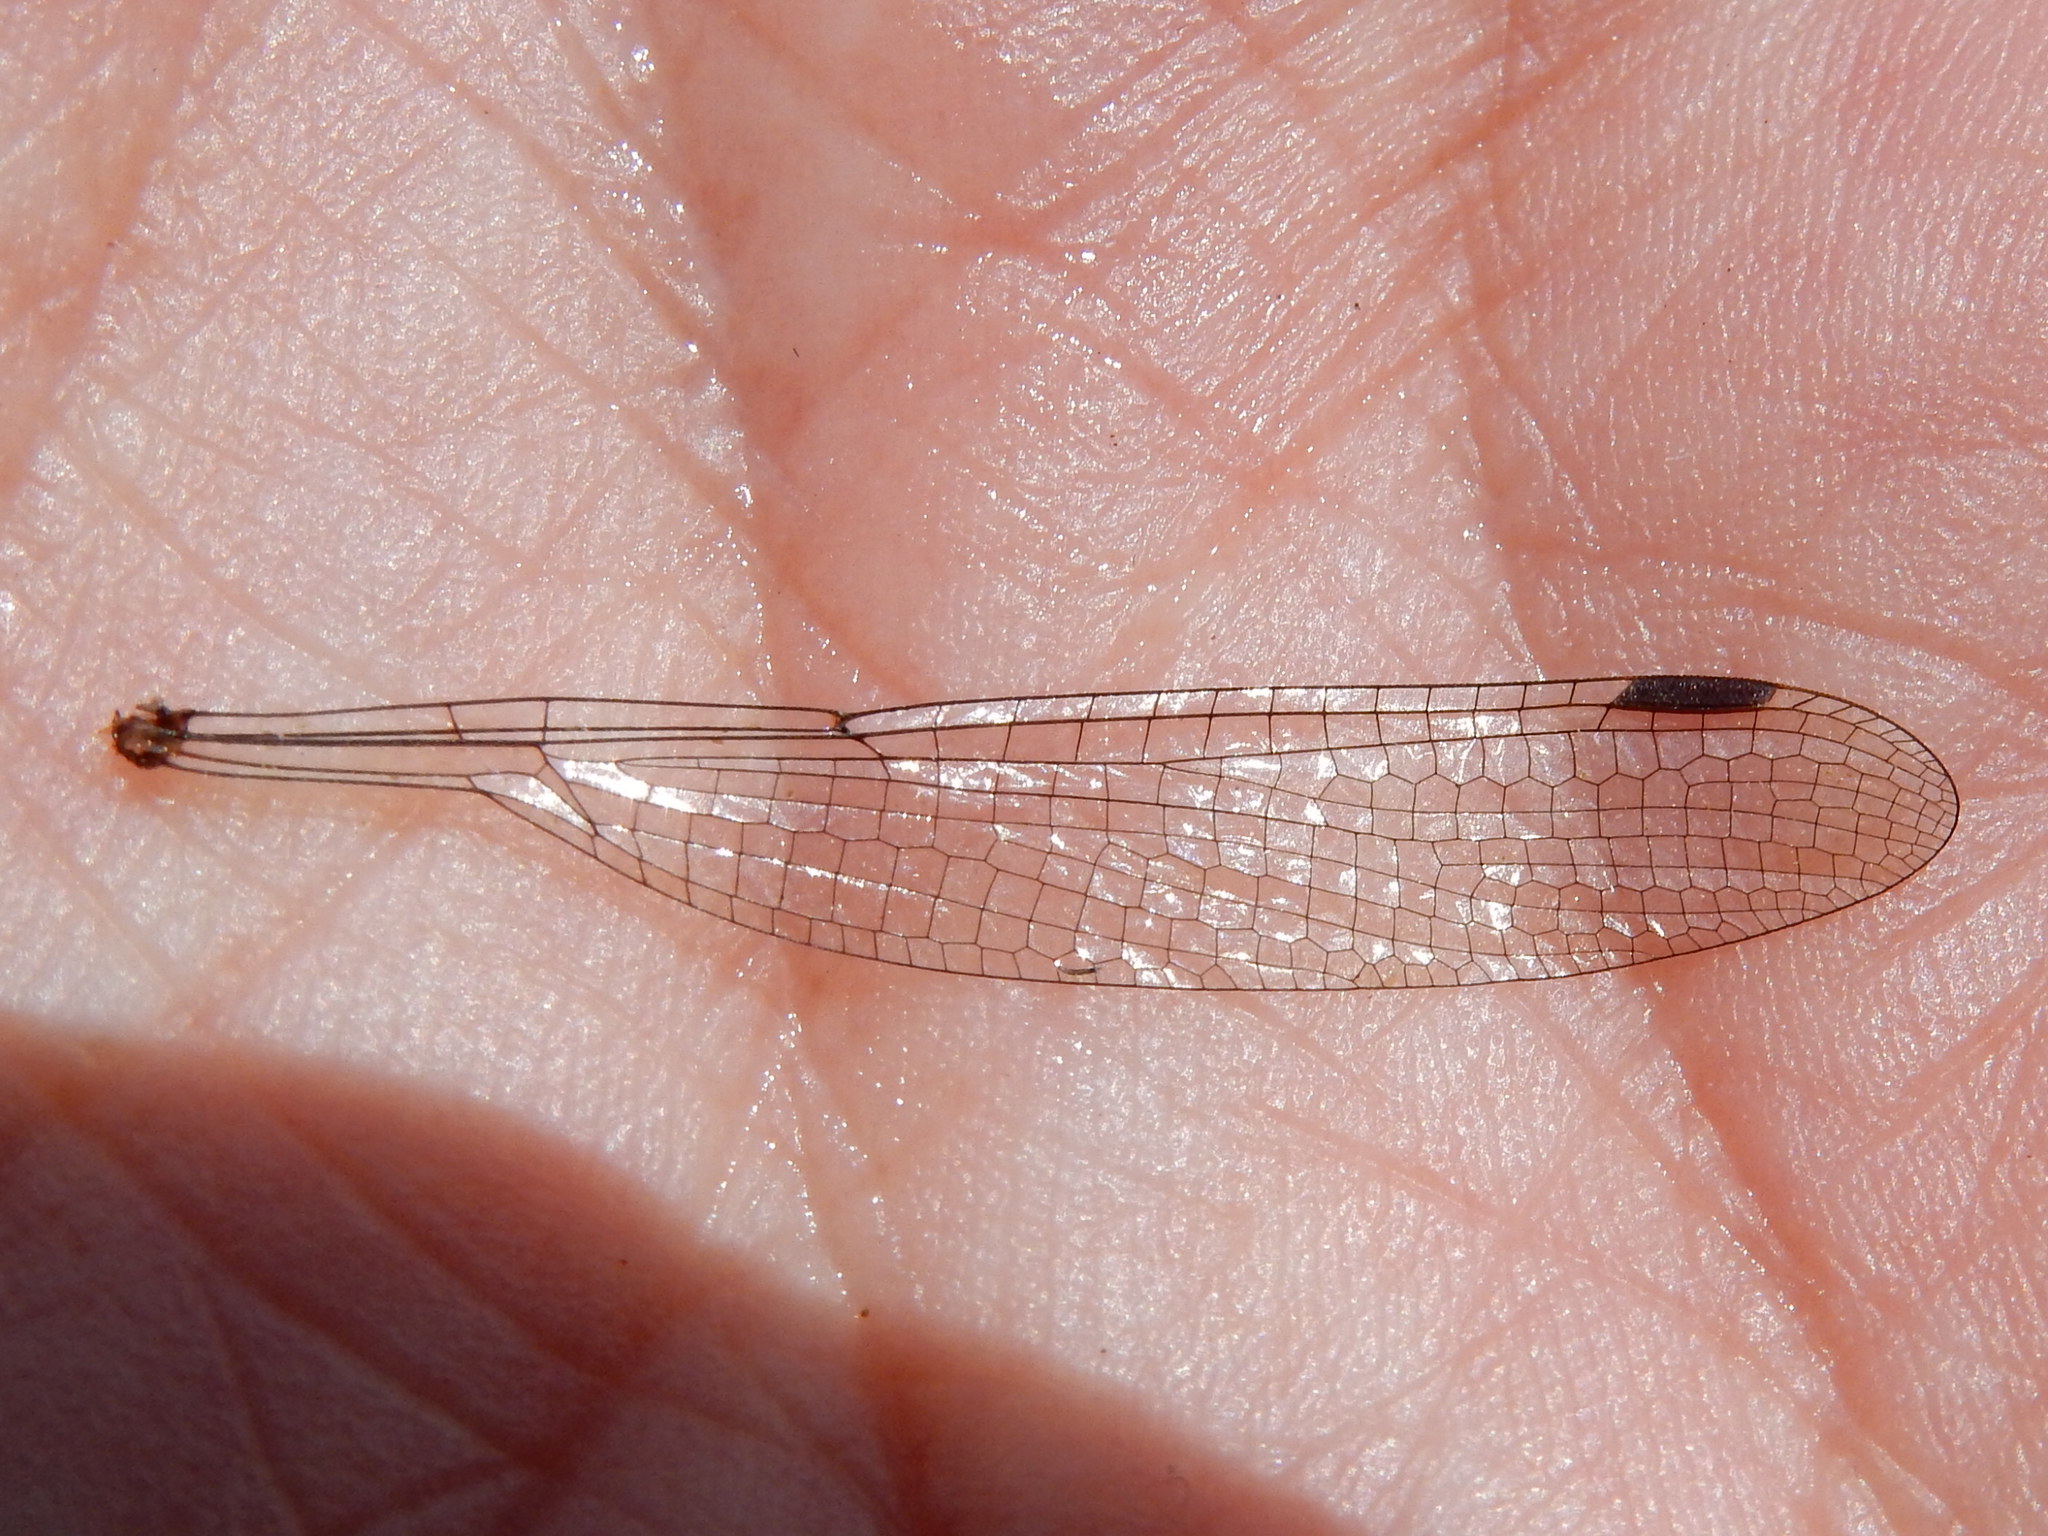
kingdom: Animalia
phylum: Arthropoda
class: Insecta
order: Odonata
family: Lestidae
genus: Austrolestes
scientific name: Austrolestes colensonis
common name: Blue damselfly
